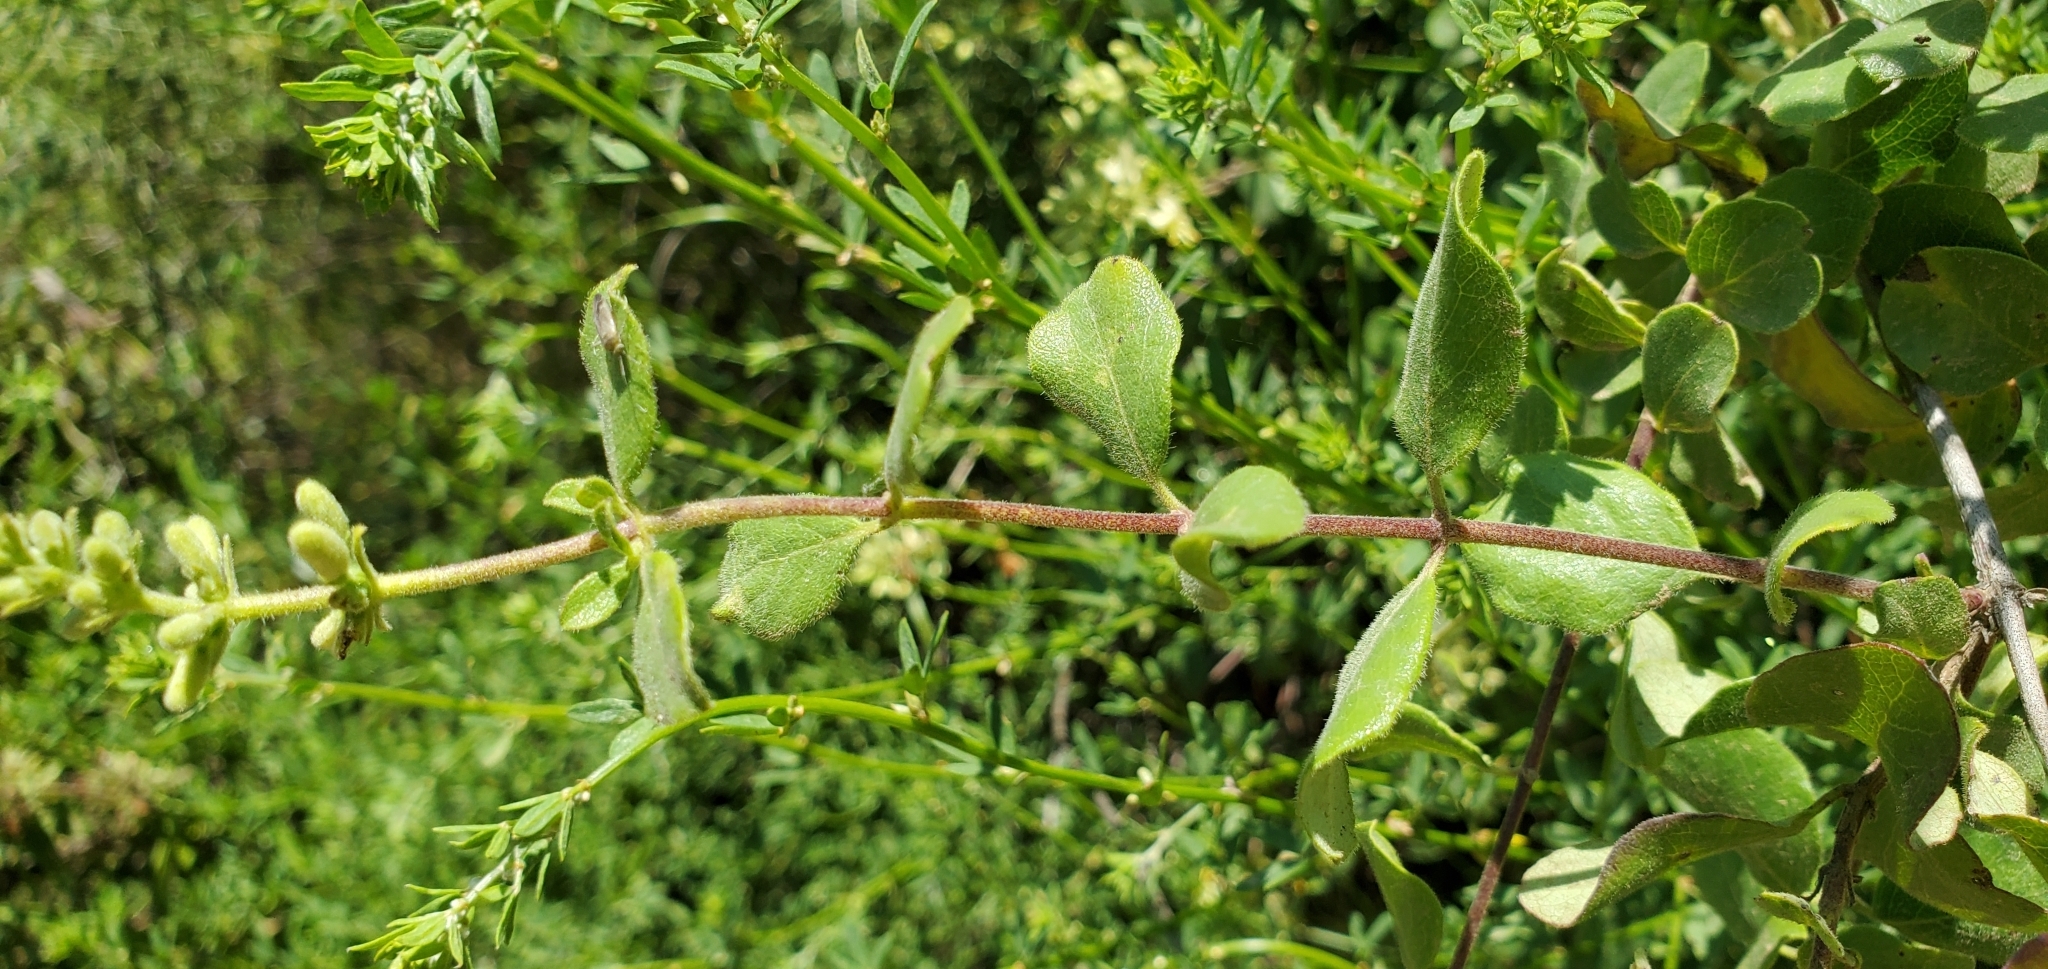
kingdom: Plantae
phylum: Tracheophyta
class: Magnoliopsida
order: Dipsacales
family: Caprifoliaceae
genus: Lonicera
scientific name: Lonicera subspicata
